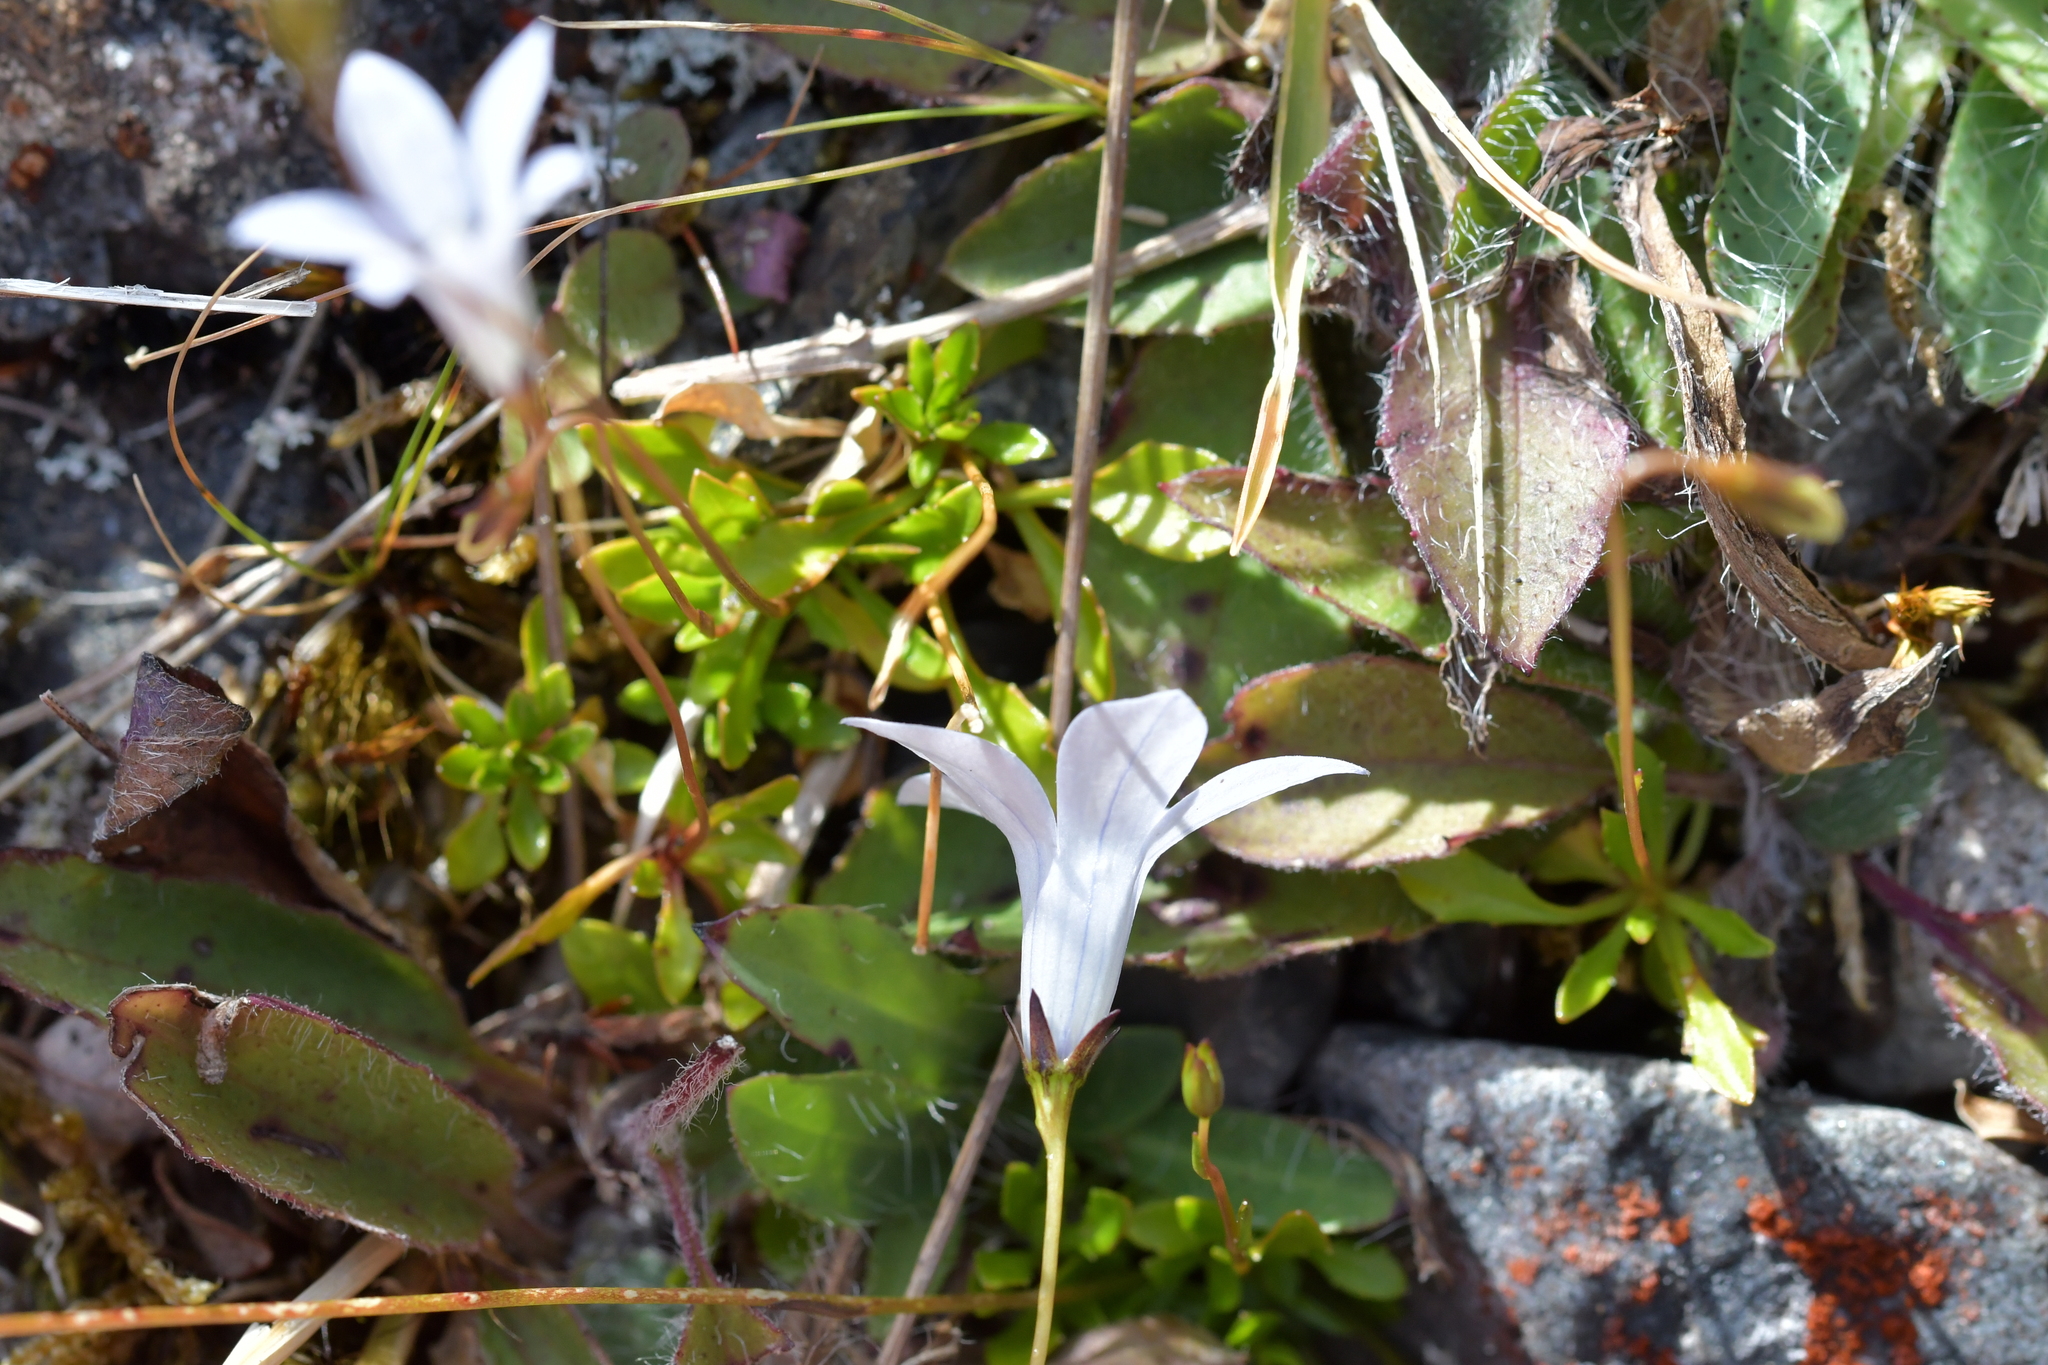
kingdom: Plantae
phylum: Tracheophyta
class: Magnoliopsida
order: Asterales
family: Campanulaceae
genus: Wahlenbergia
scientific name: Wahlenbergia albomarginata
